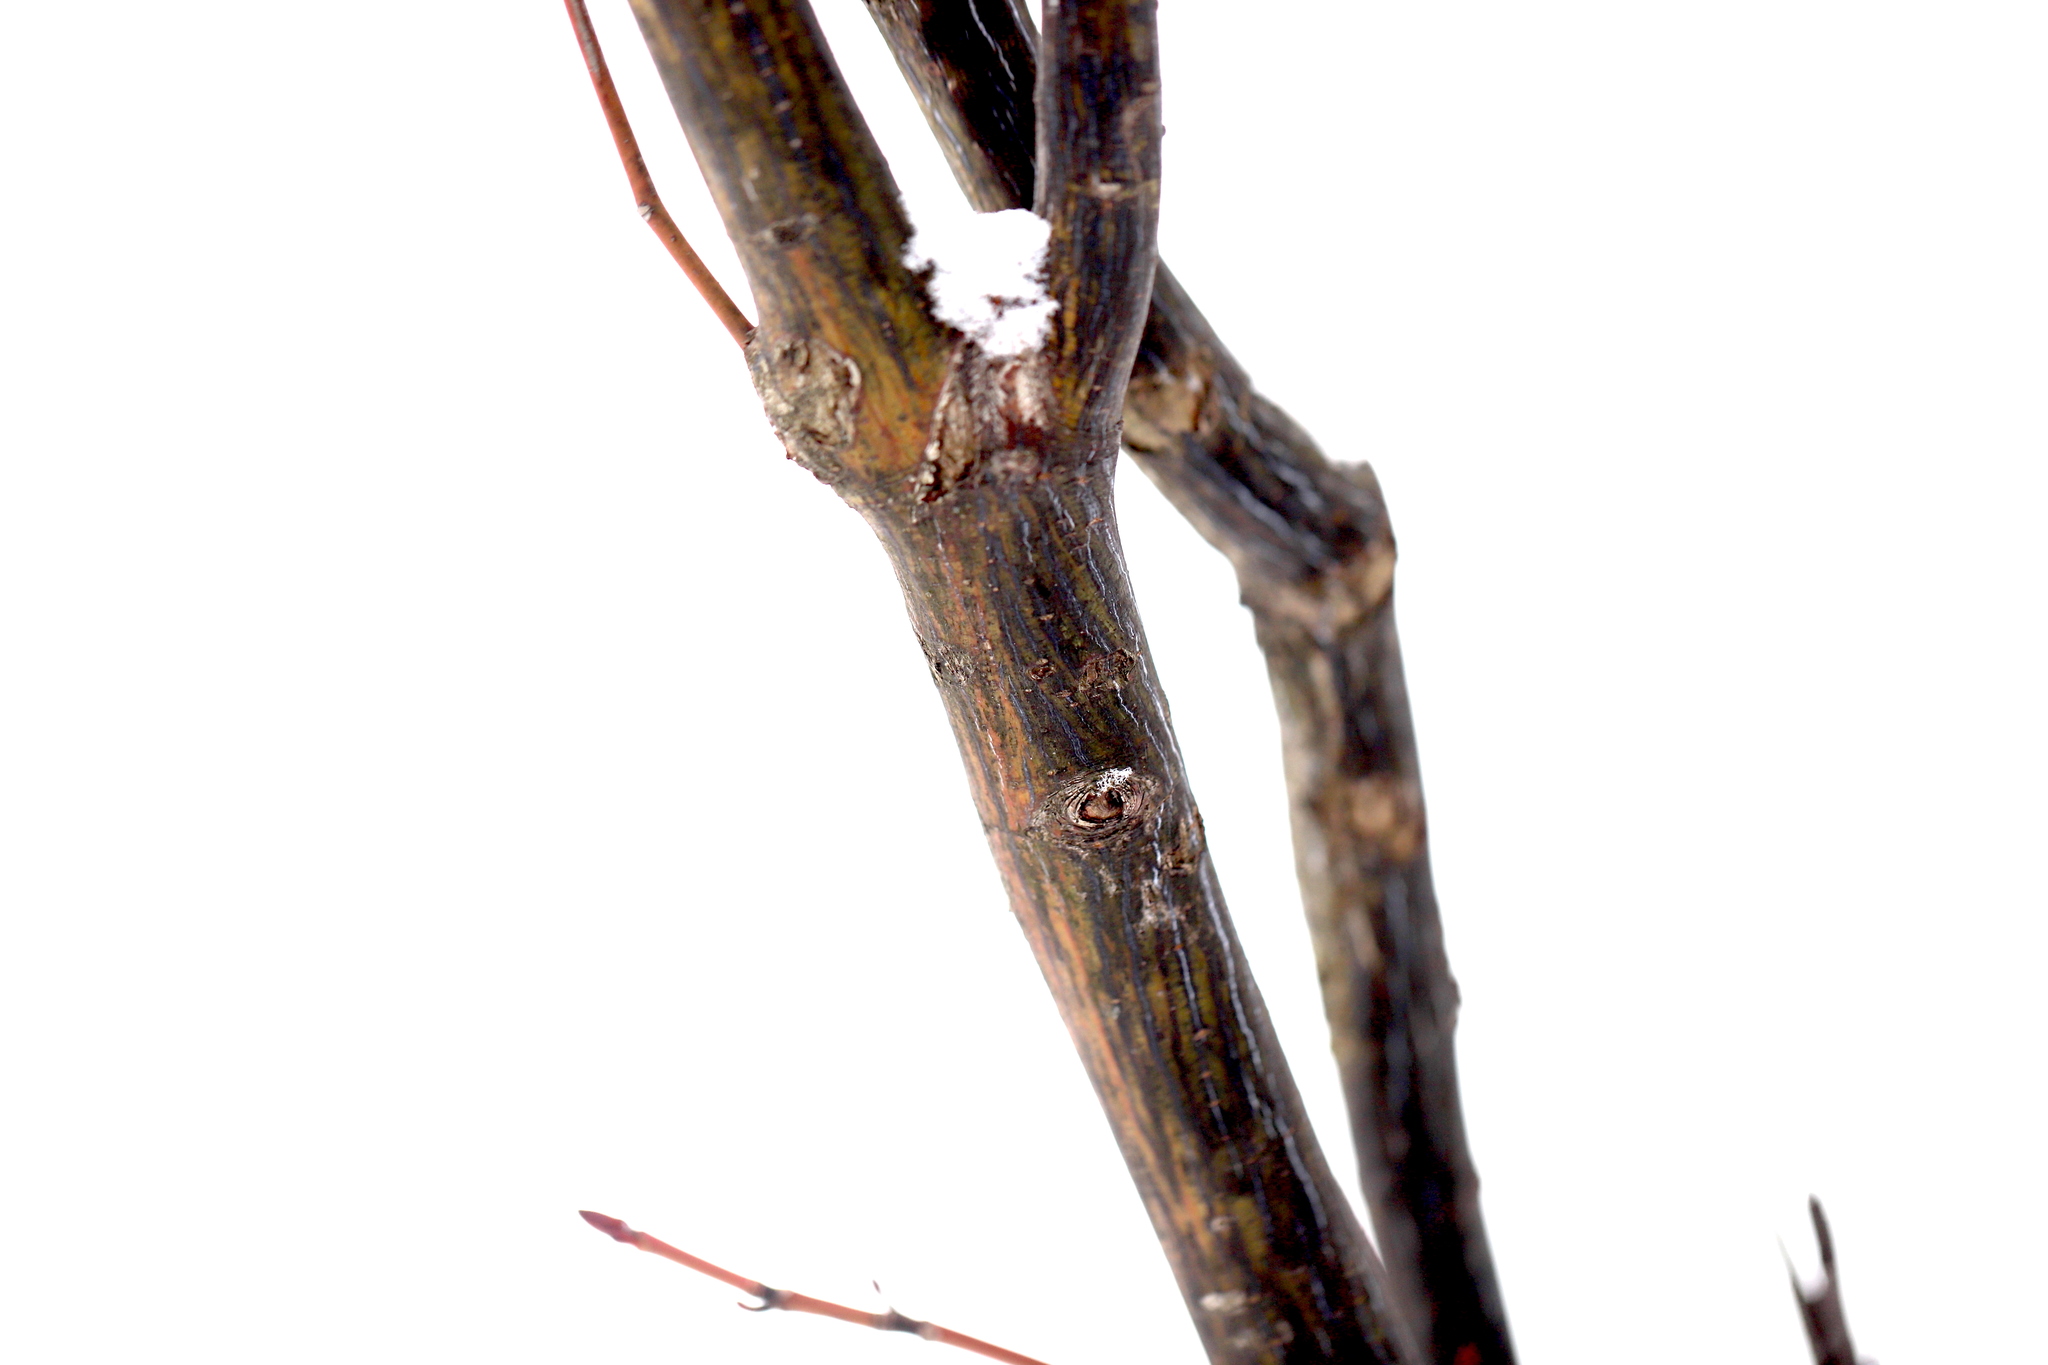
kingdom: Plantae
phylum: Tracheophyta
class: Magnoliopsida
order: Sapindales
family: Sapindaceae
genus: Acer
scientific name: Acer pensylvanicum
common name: Moosewood
